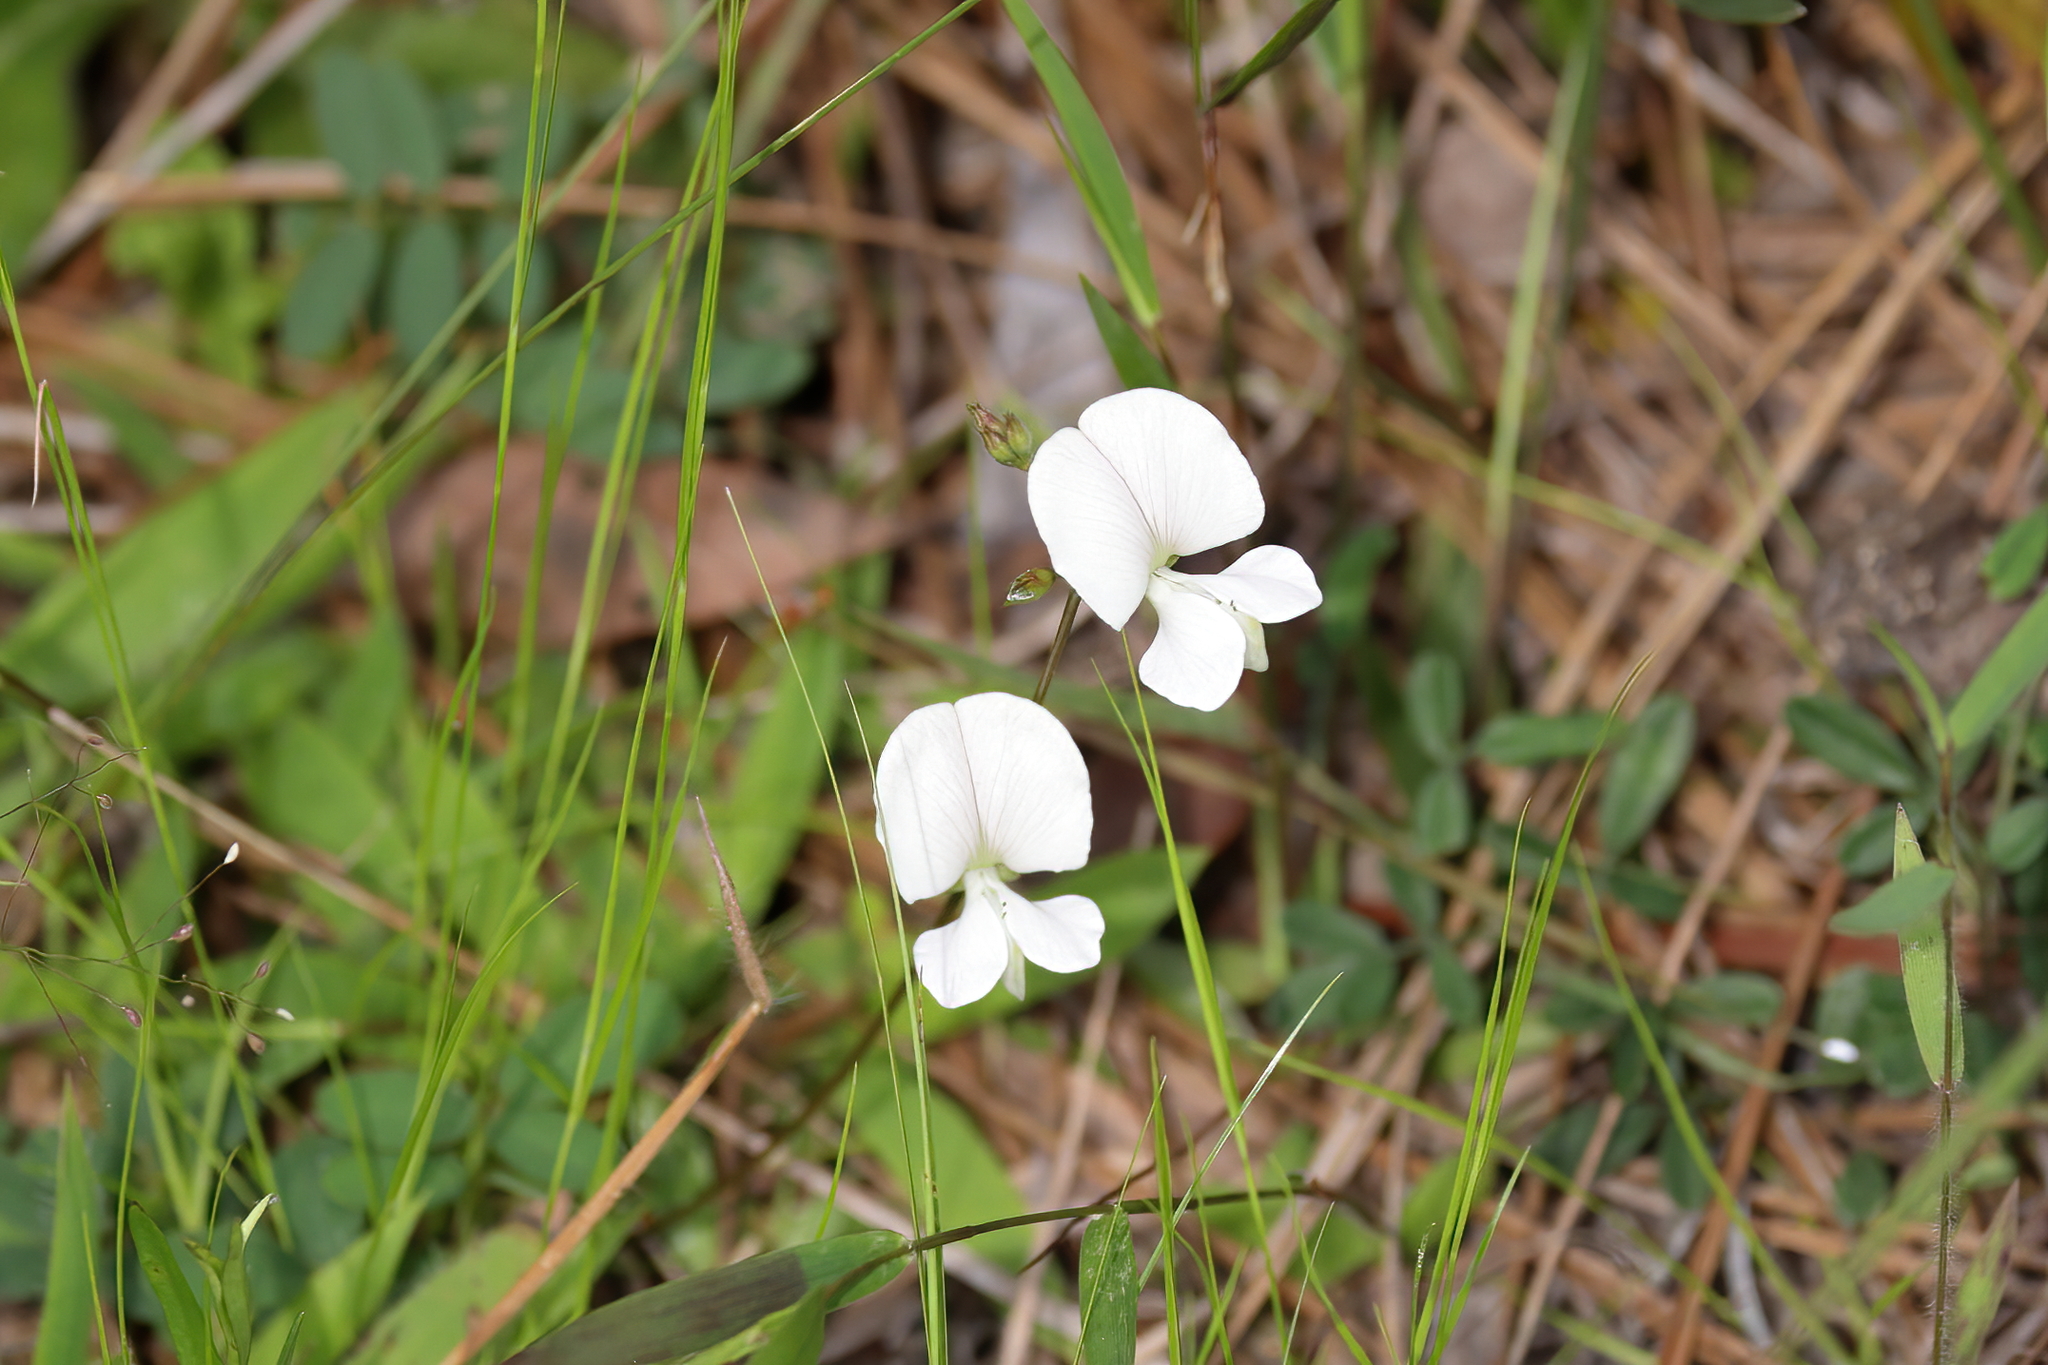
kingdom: Plantae
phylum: Tracheophyta
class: Magnoliopsida
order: Fabales
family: Fabaceae
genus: Tephrosia
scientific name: Tephrosia florida
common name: Florida hoary-pea
